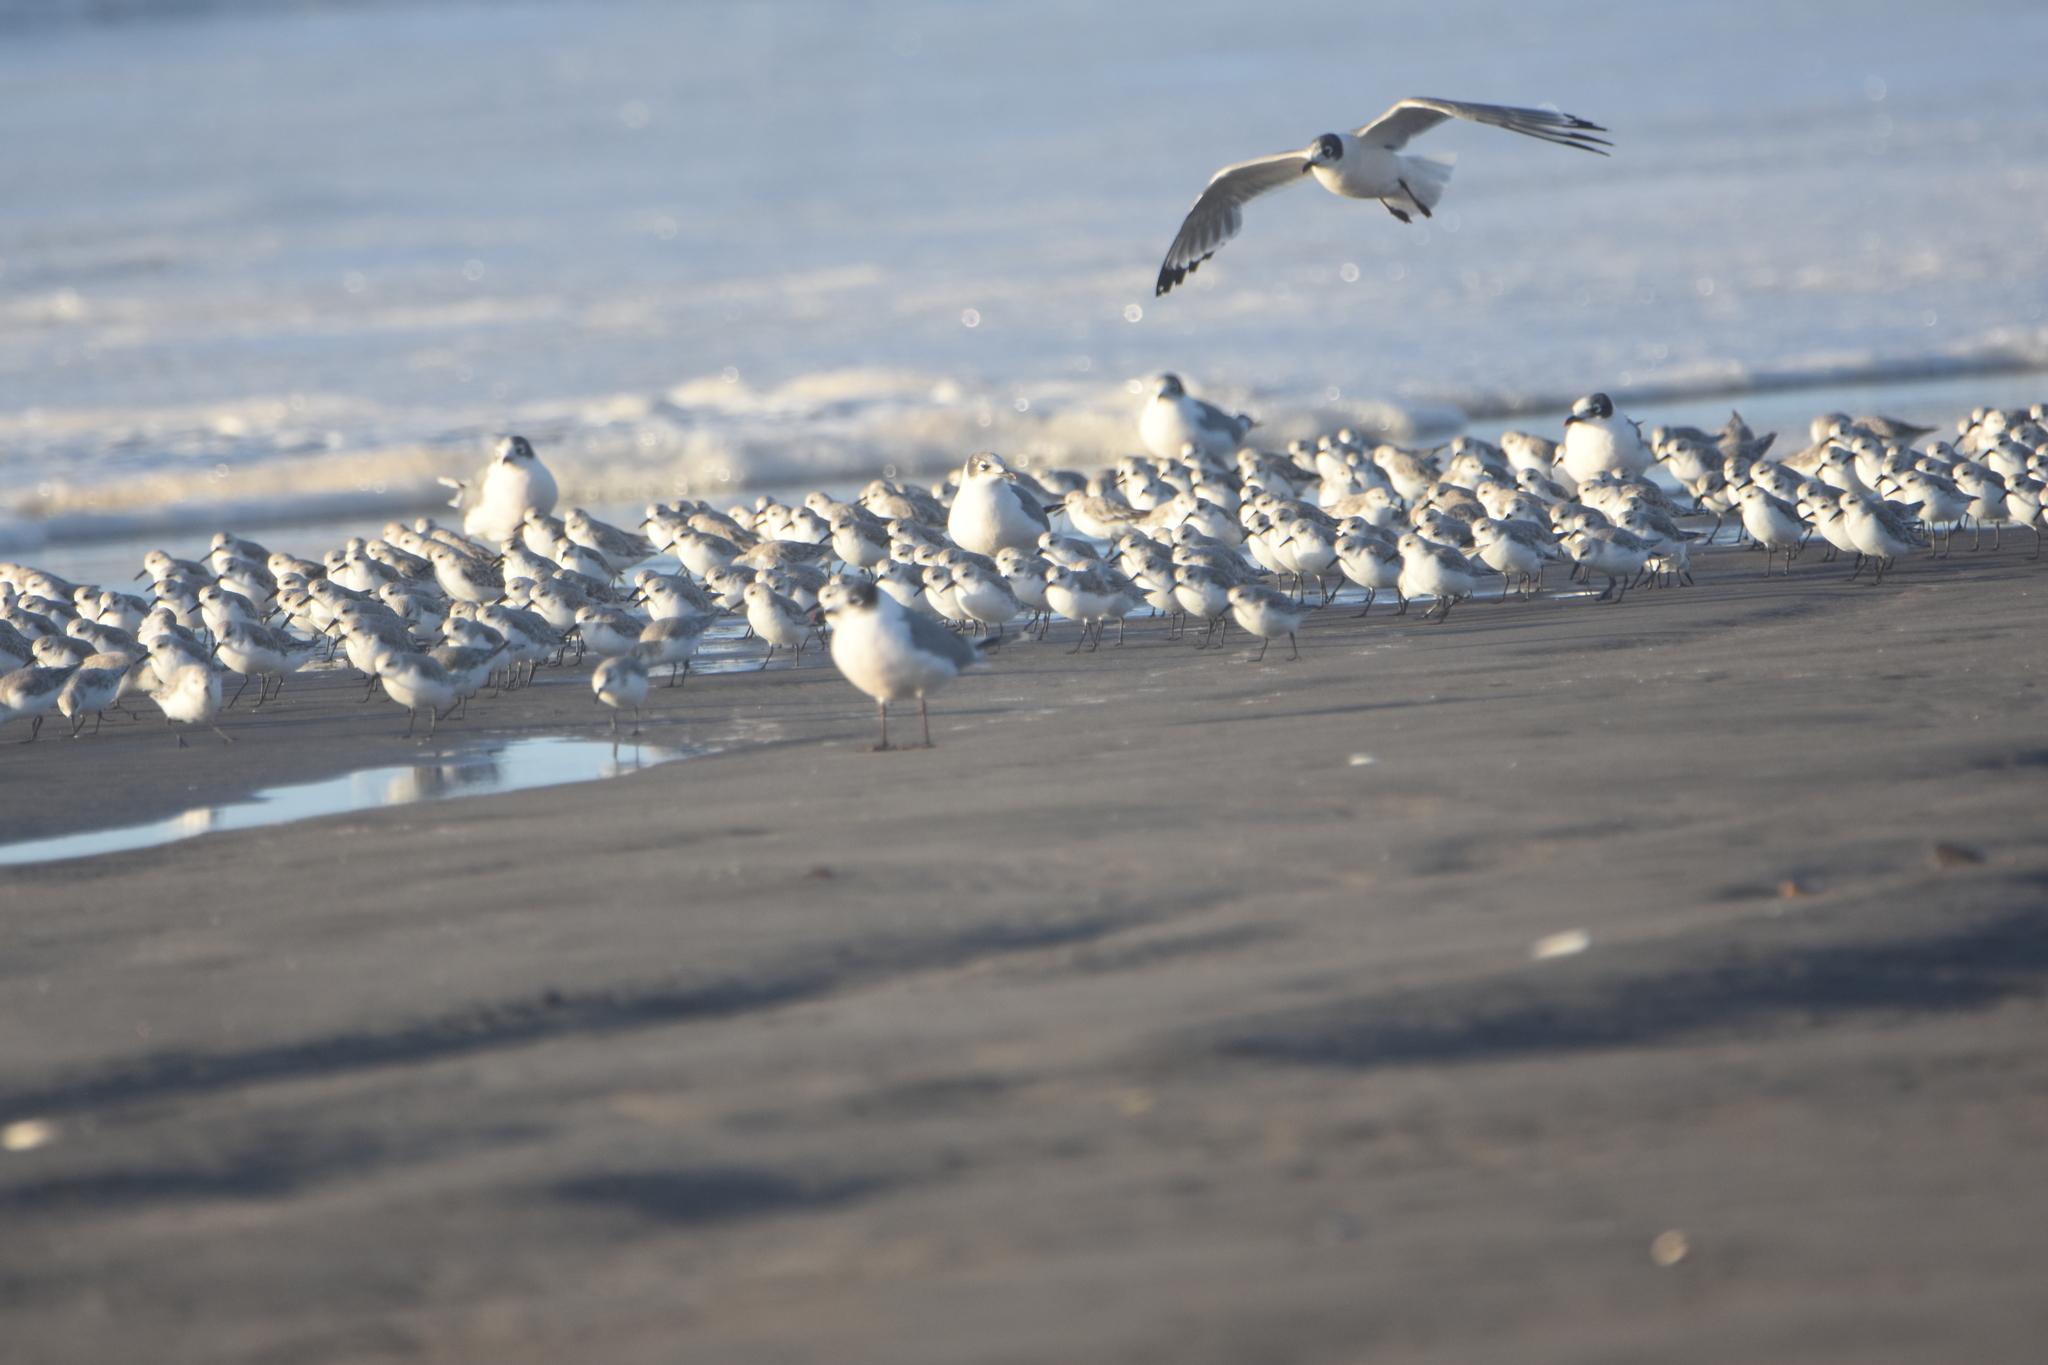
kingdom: Animalia
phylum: Chordata
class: Aves
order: Charadriiformes
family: Laridae
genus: Leucophaeus
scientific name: Leucophaeus pipixcan
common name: Franklin's gull
